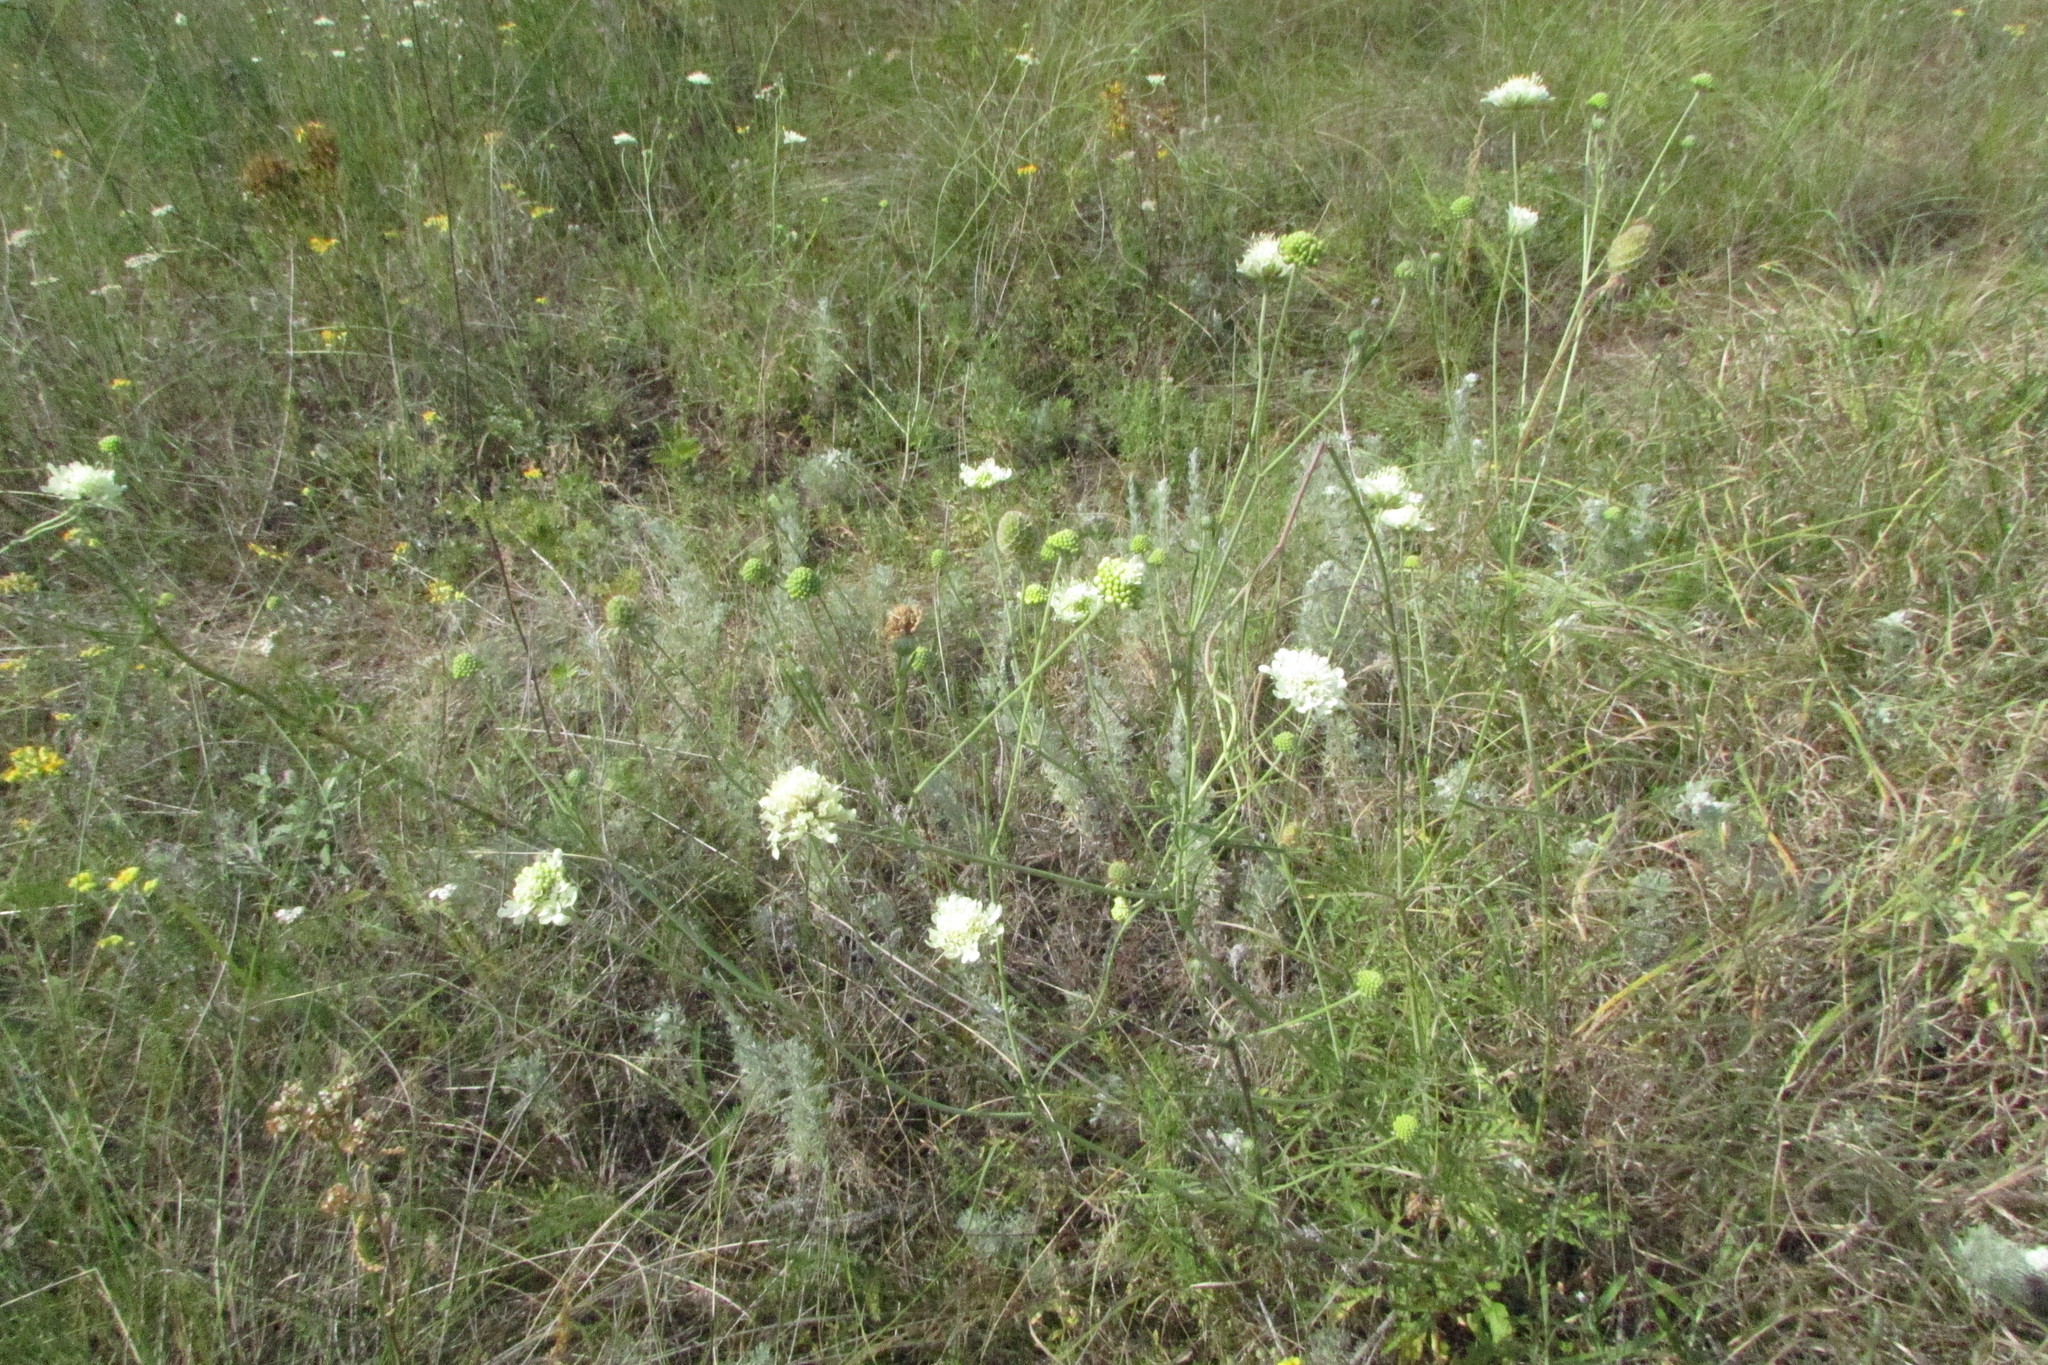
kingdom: Plantae
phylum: Tracheophyta
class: Magnoliopsida
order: Dipsacales
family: Caprifoliaceae
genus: Scabiosa
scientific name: Scabiosa ochroleuca
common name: Cream pincushions
